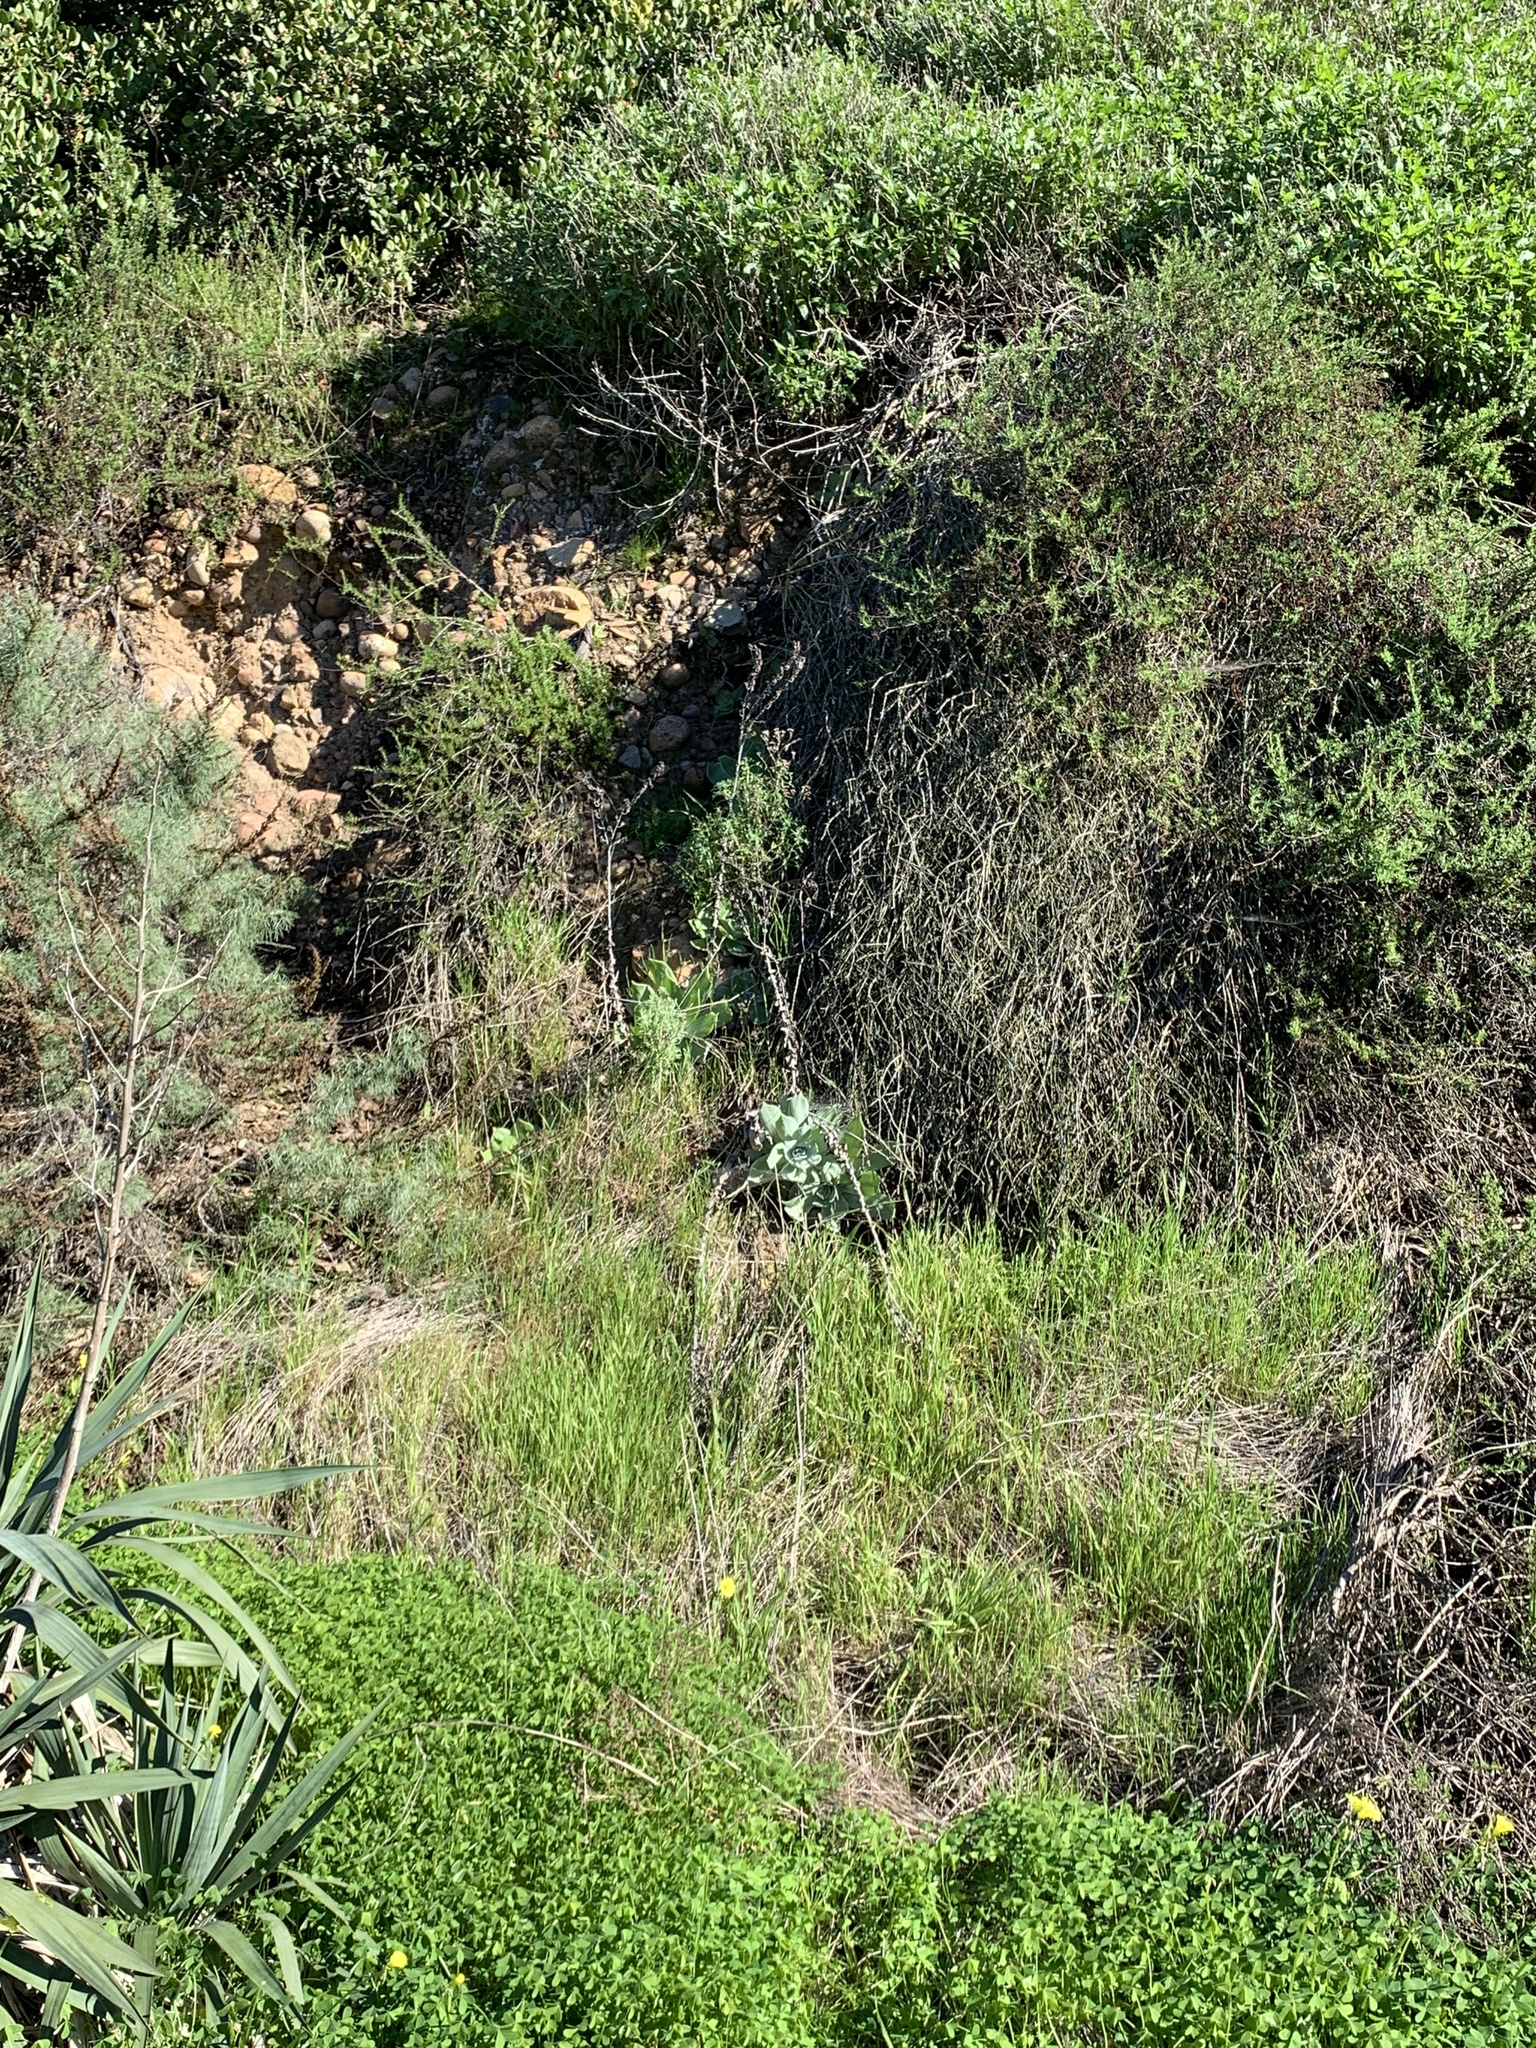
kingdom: Plantae
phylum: Tracheophyta
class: Magnoliopsida
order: Saxifragales
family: Crassulaceae
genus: Dudleya
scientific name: Dudleya pulverulenta
